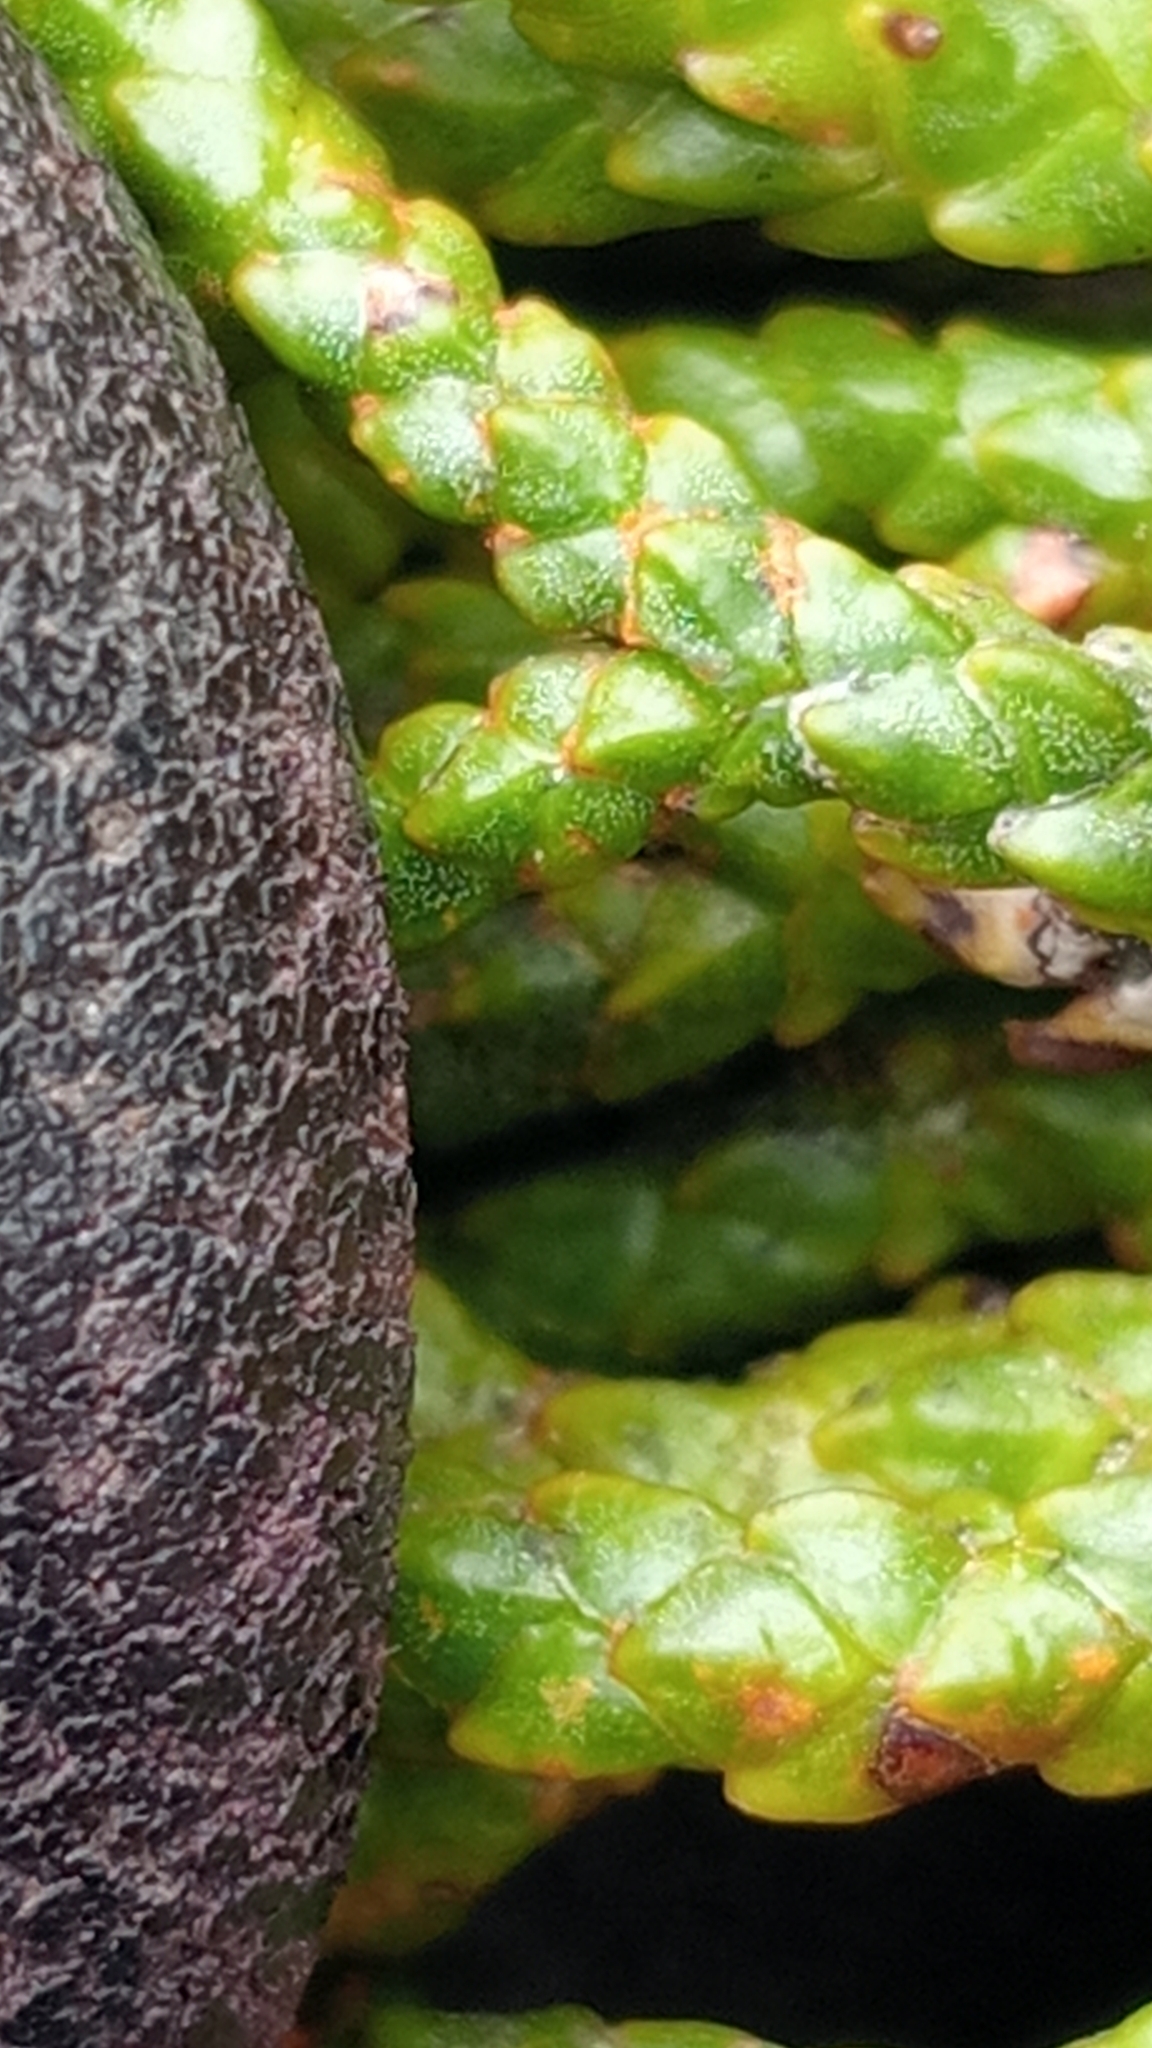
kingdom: Plantae
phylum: Tracheophyta
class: Pinopsida
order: Pinales
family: Podocarpaceae
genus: Halocarpus
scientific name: Halocarpus biformis
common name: Alpine tarwood
